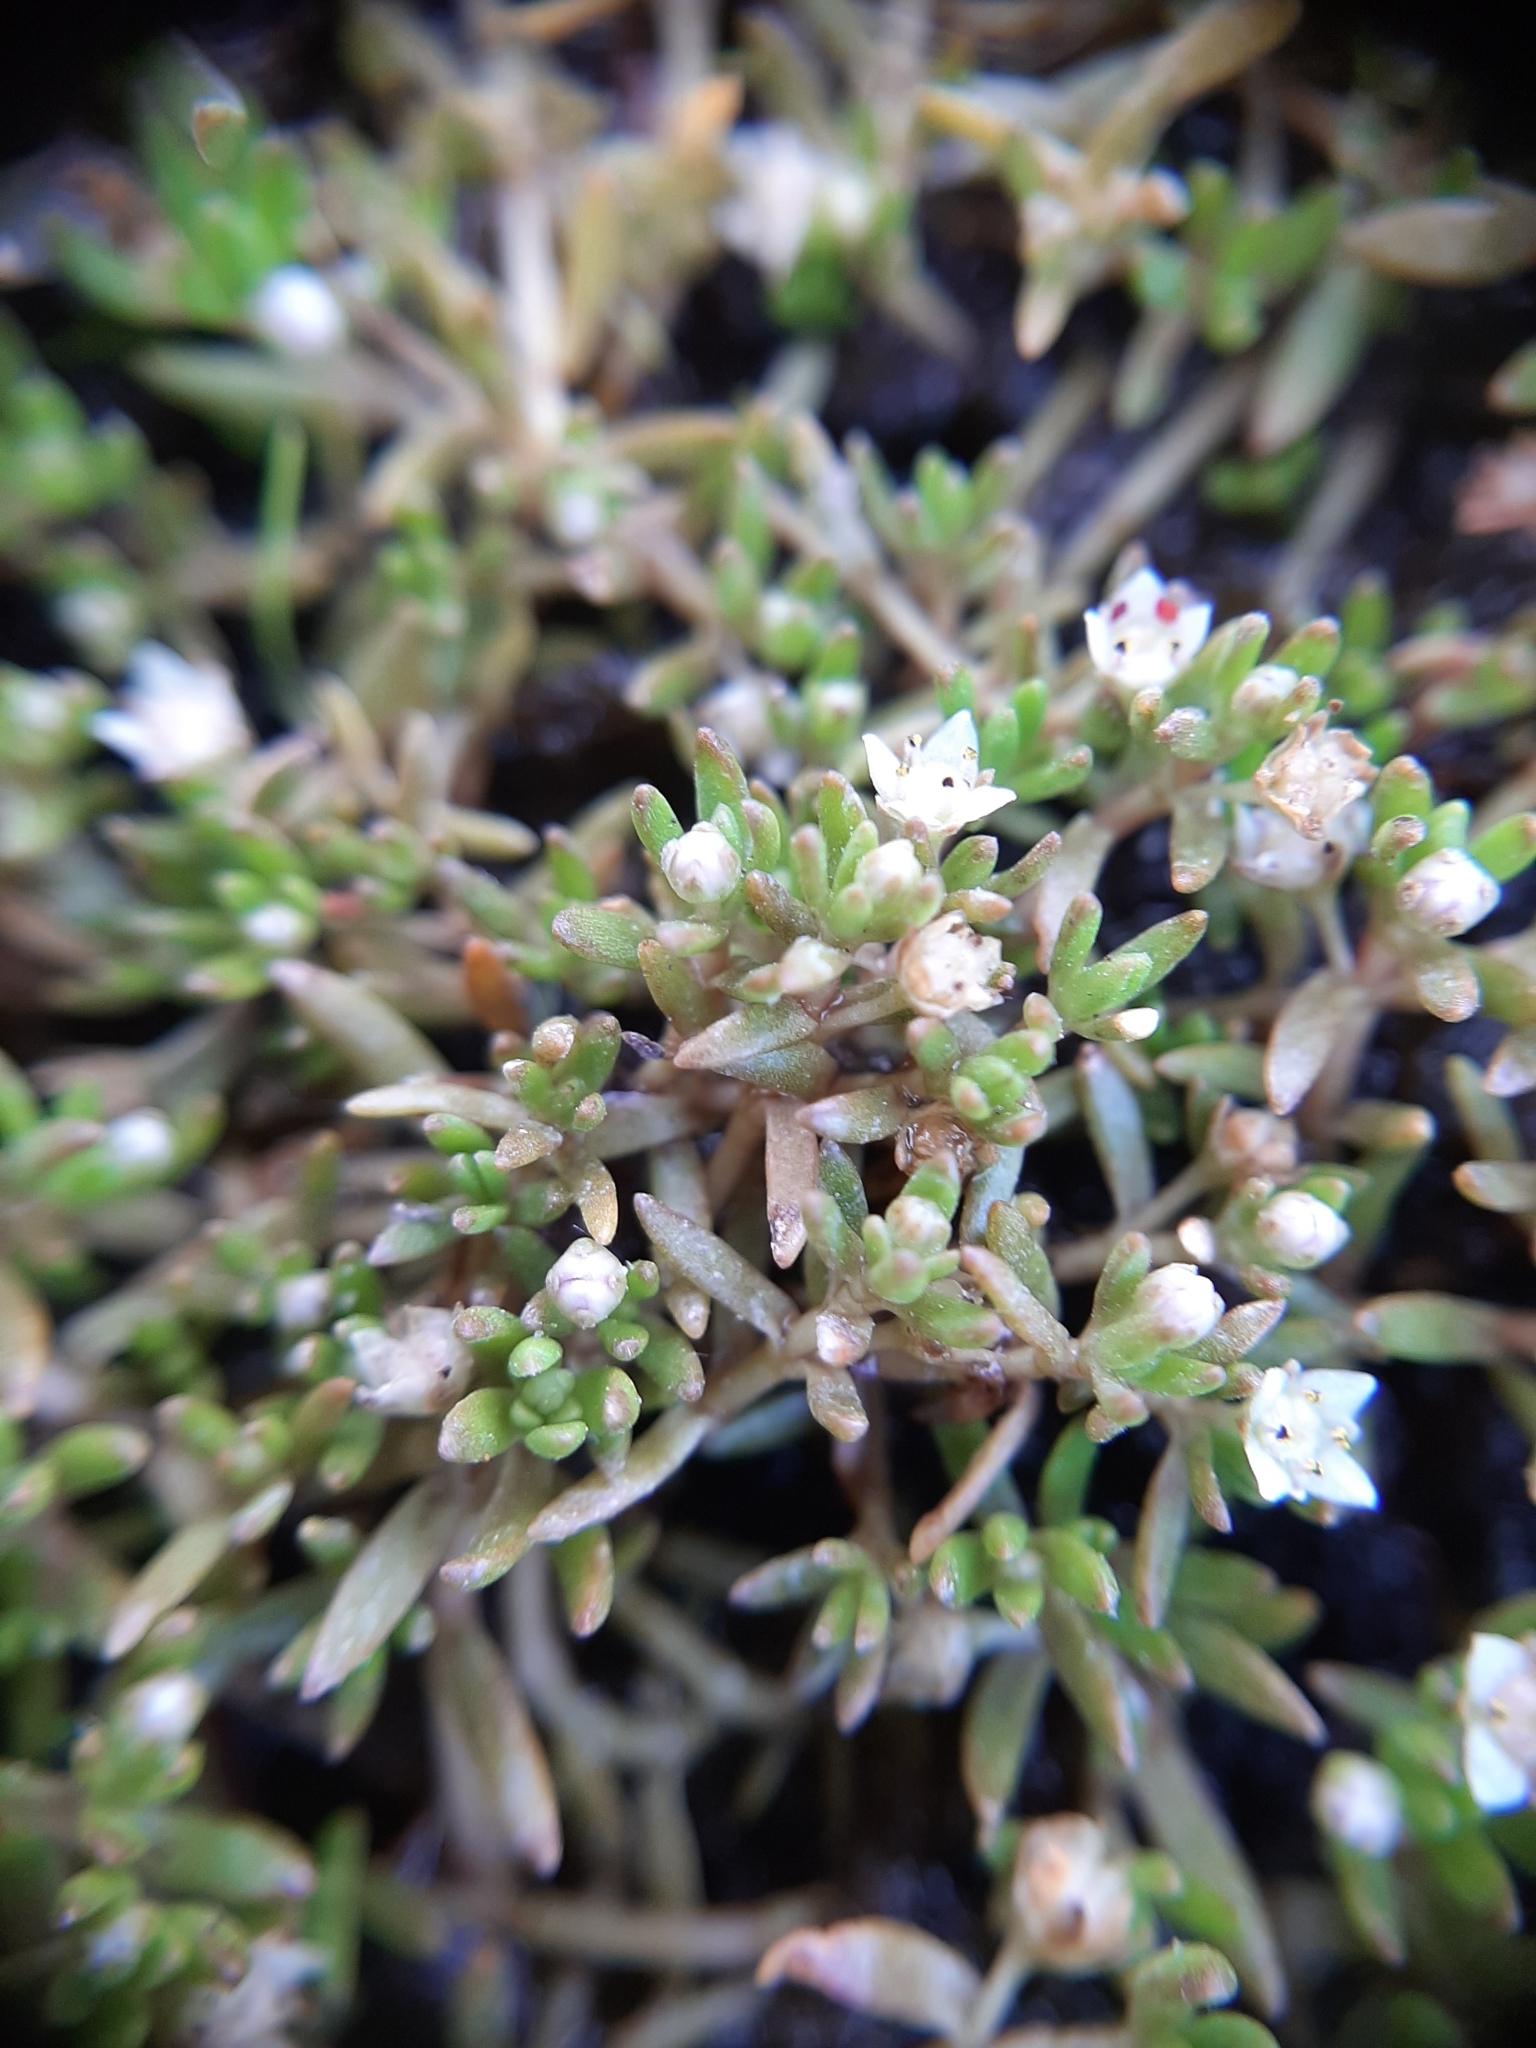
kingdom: Plantae
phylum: Tracheophyta
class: Magnoliopsida
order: Saxifragales
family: Crassulaceae
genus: Crassula
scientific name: Crassula sinclairii
